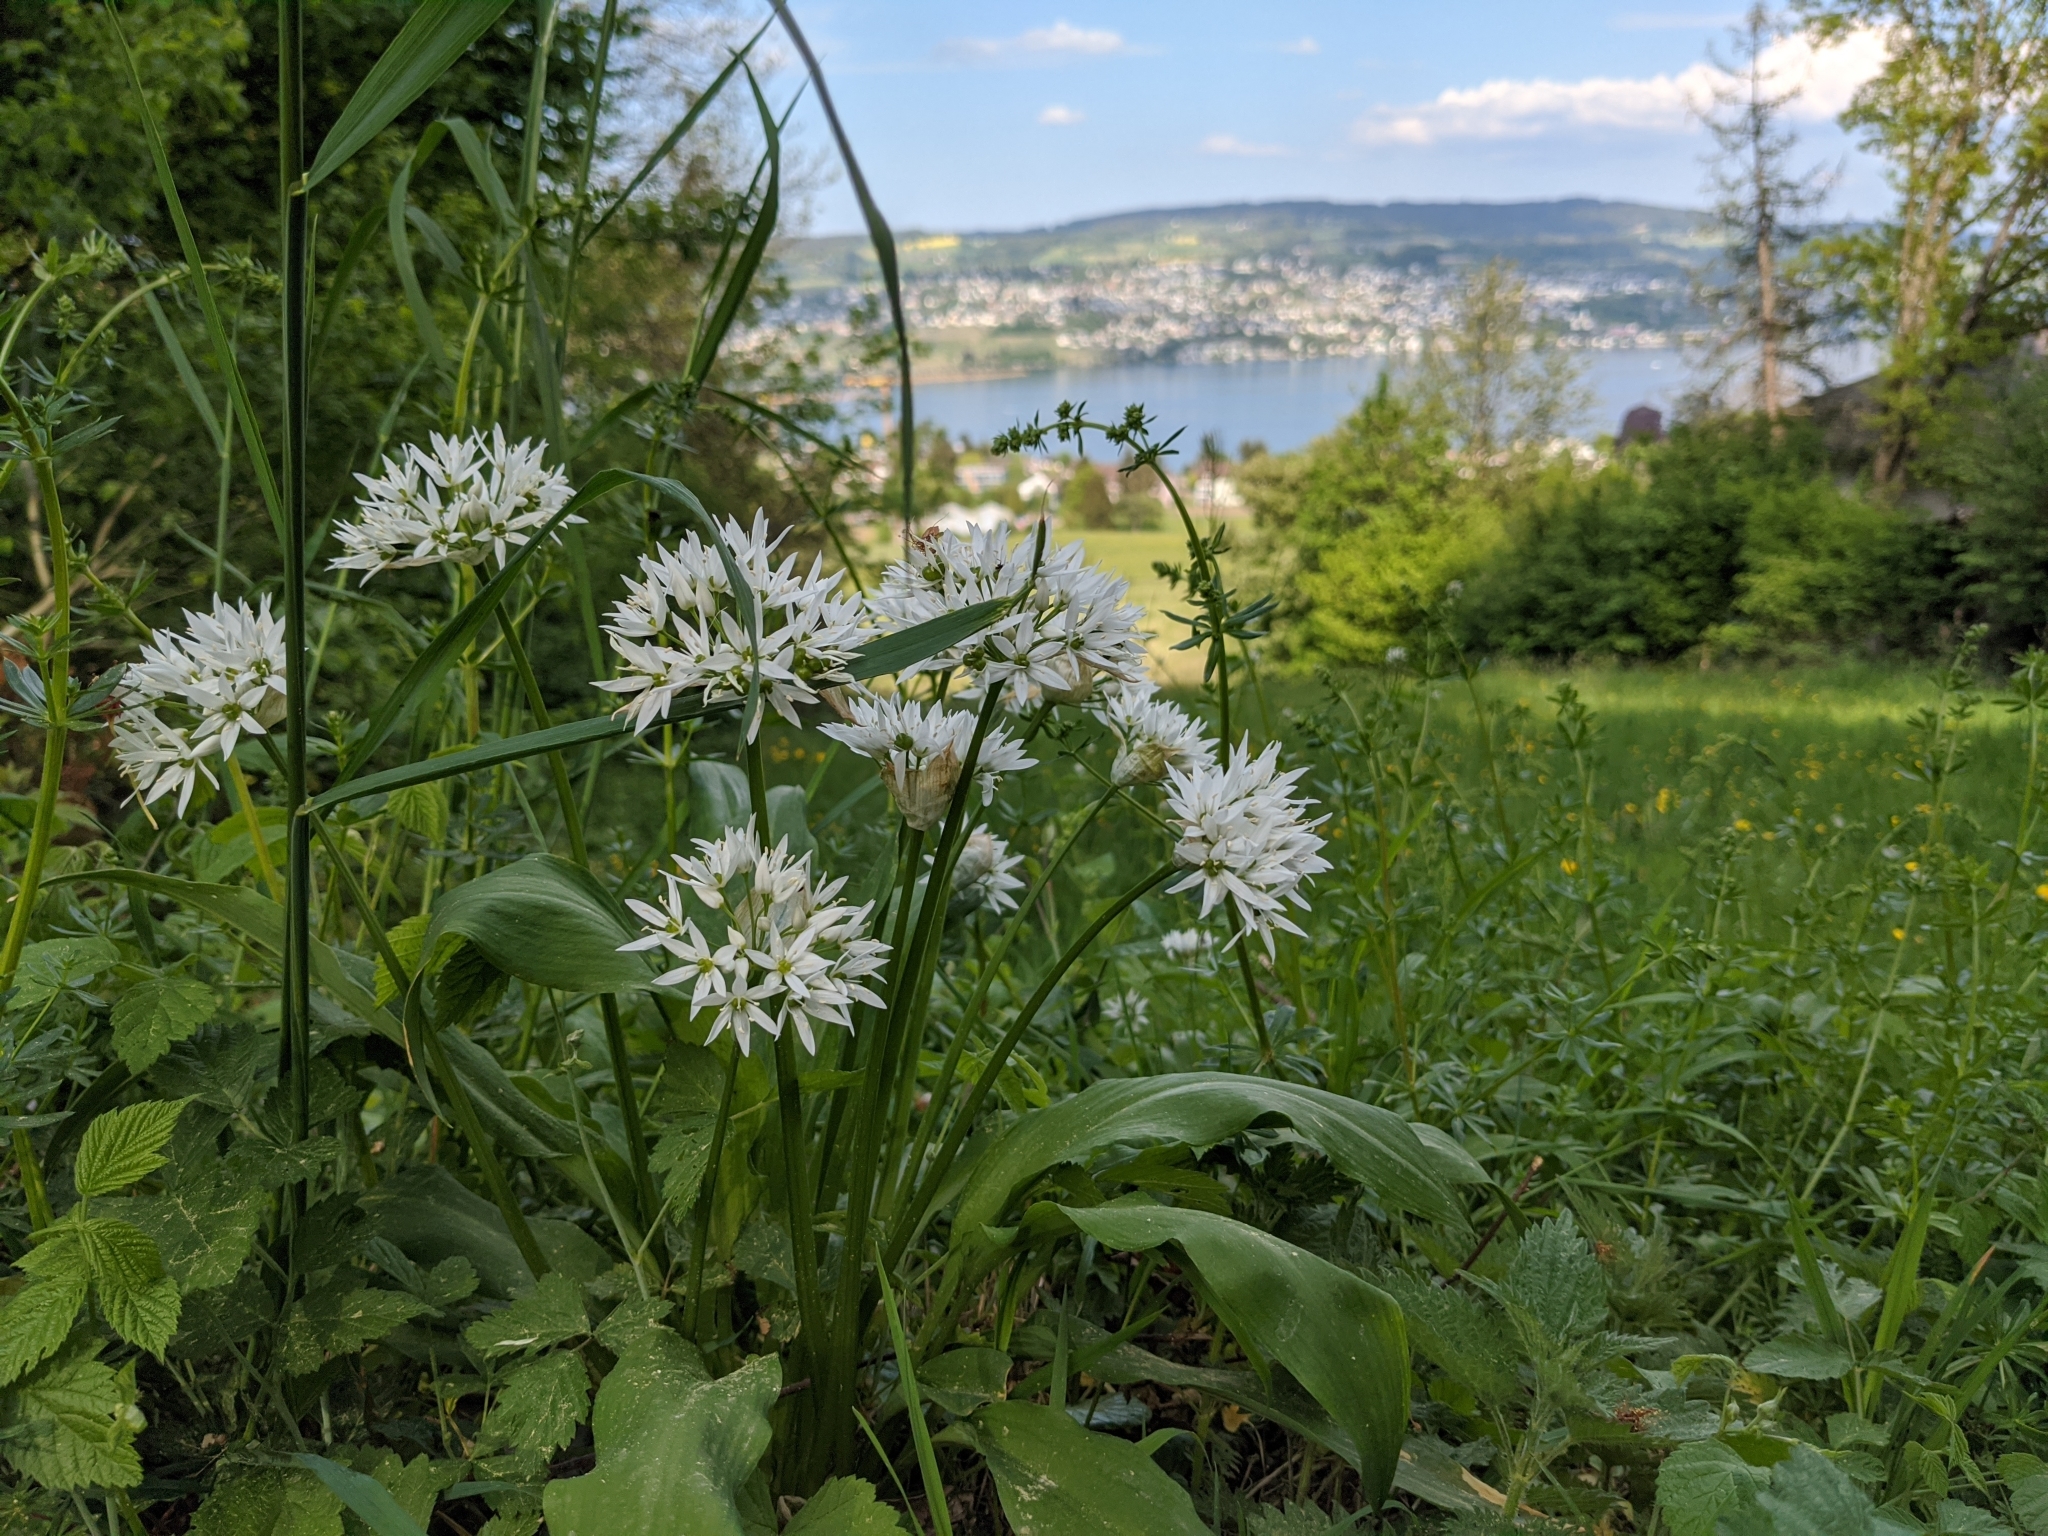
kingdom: Plantae
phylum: Tracheophyta
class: Liliopsida
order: Asparagales
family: Amaryllidaceae
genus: Allium
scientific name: Allium ursinum
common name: Ramsons
